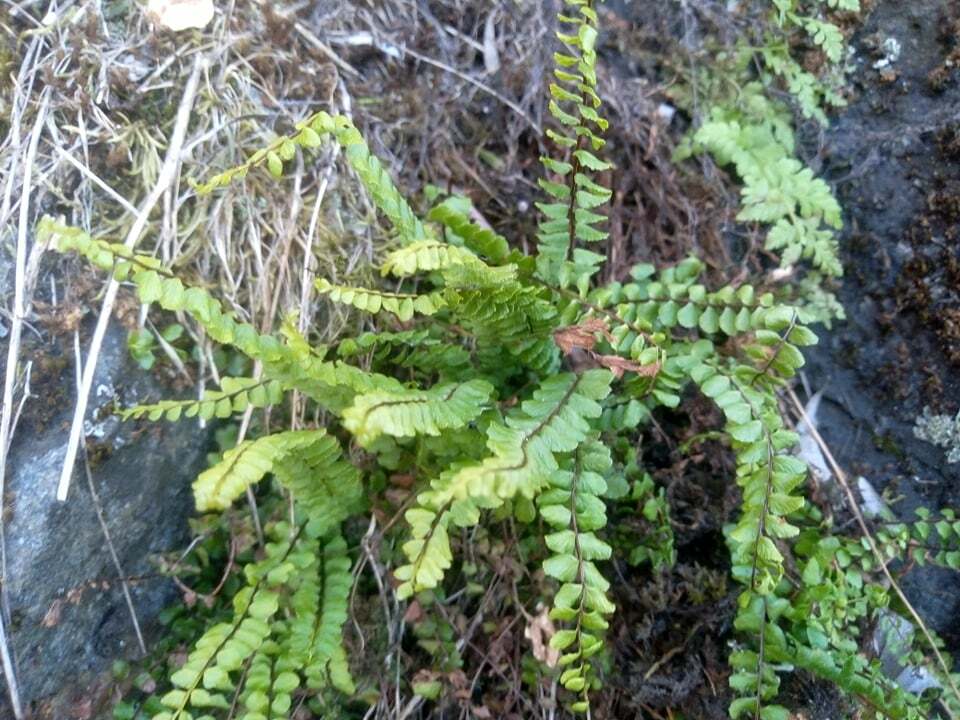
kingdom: Plantae
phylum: Tracheophyta
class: Polypodiopsida
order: Polypodiales
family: Aspleniaceae
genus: Asplenium
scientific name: Asplenium trichomanes
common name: Maidenhair spleenwort
